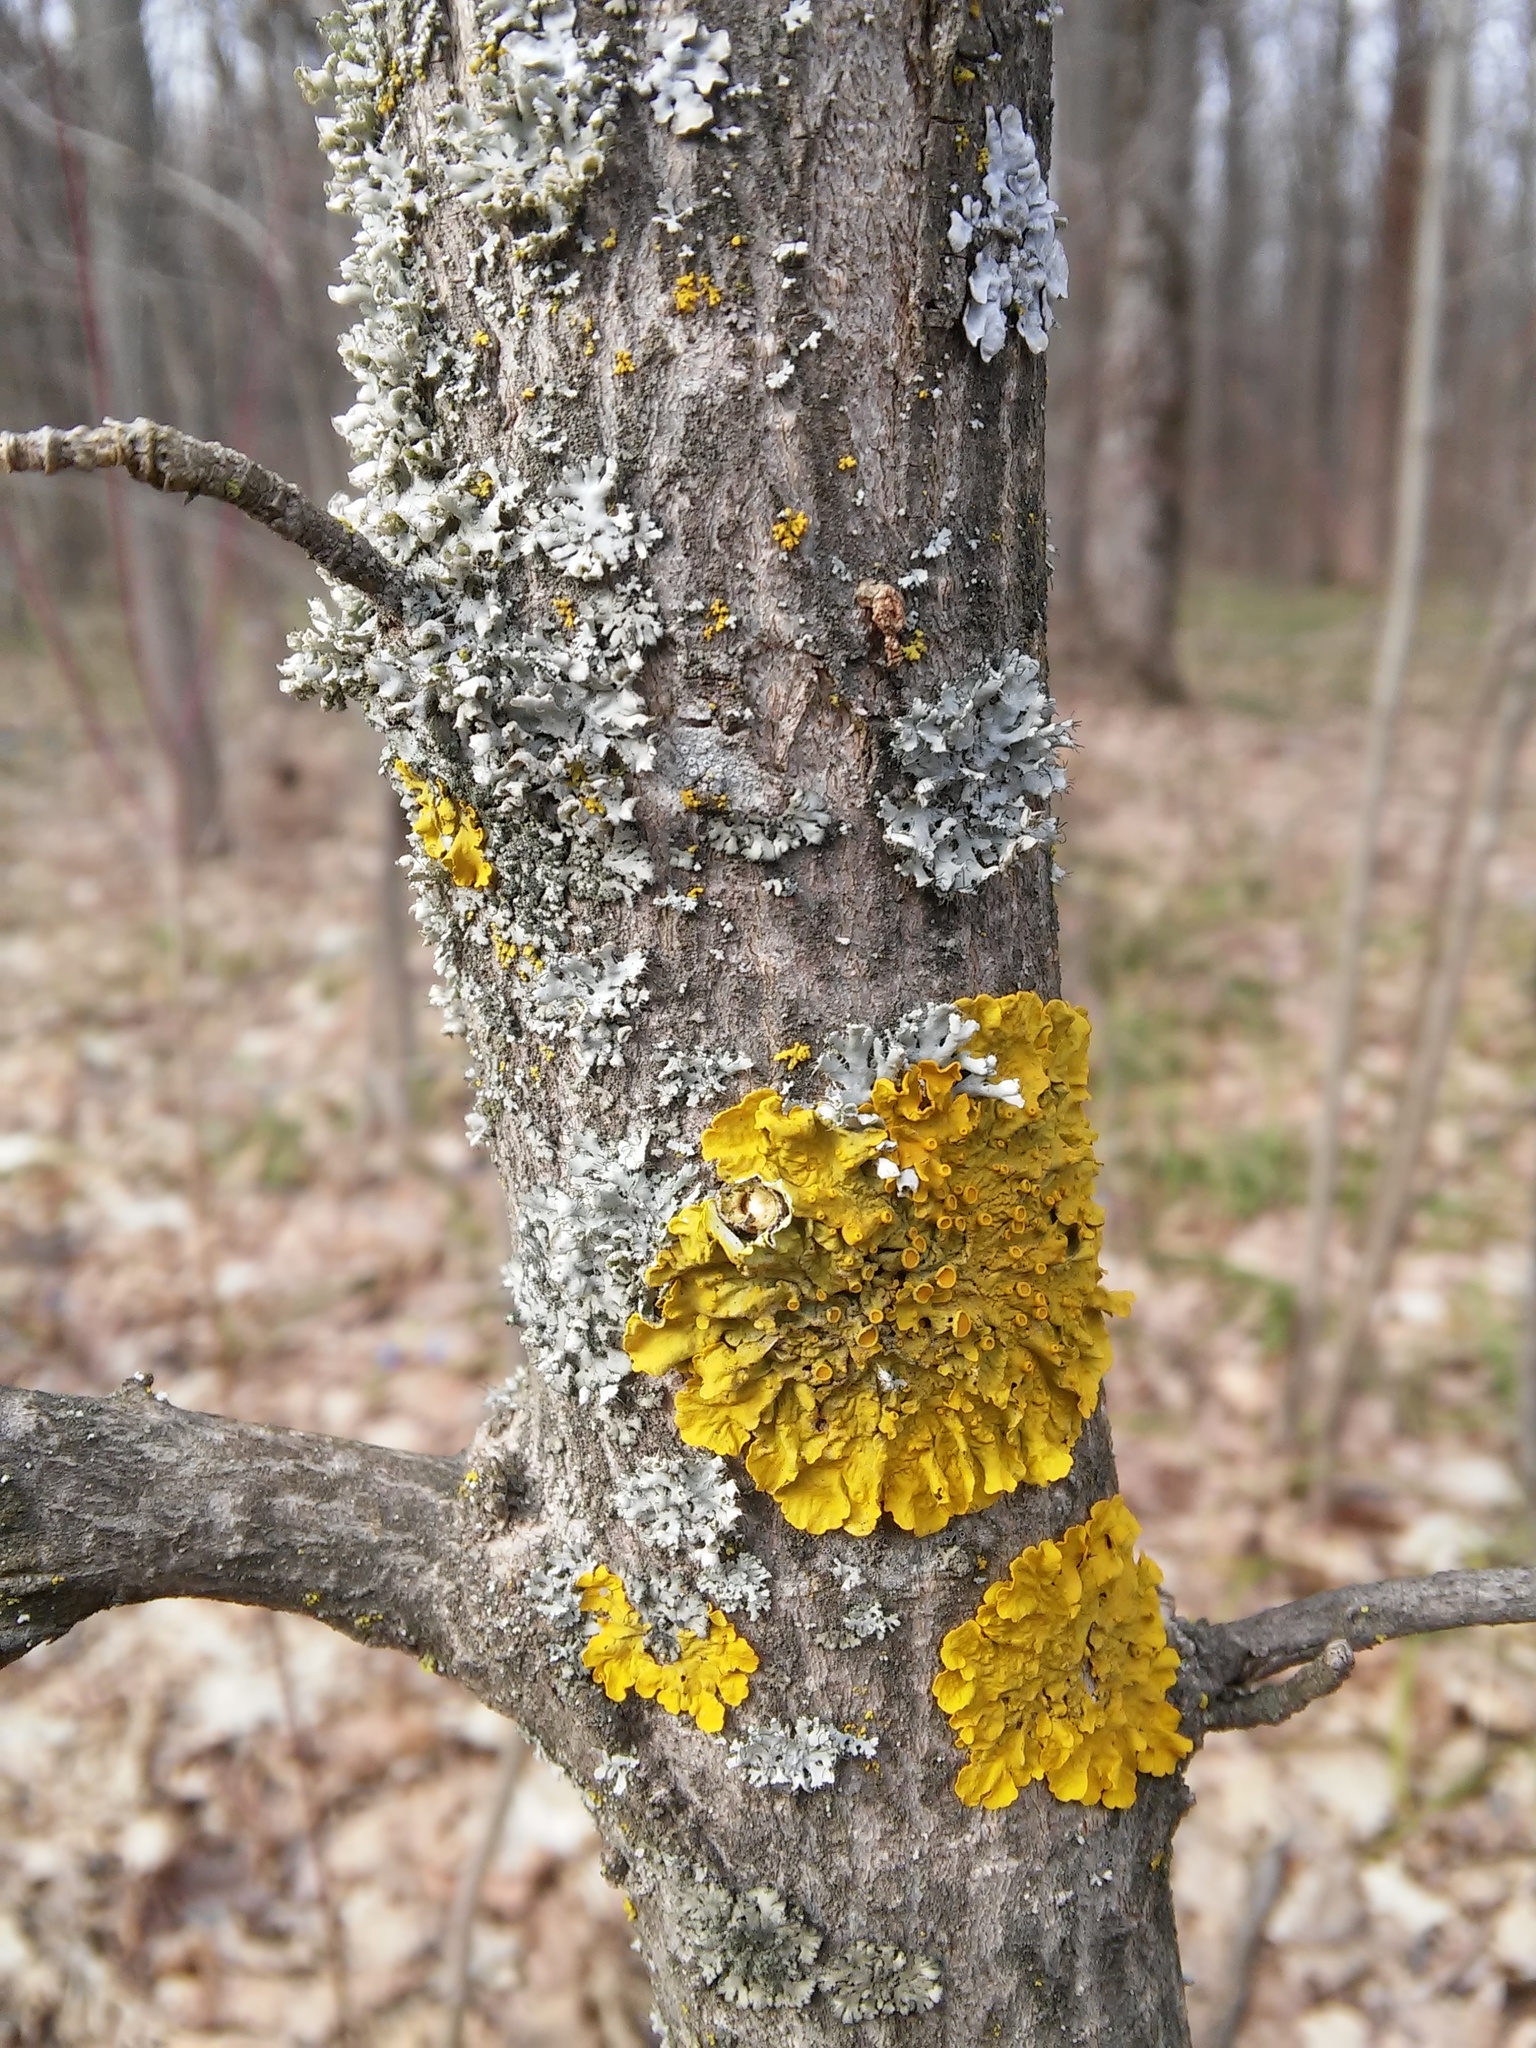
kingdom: Fungi
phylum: Ascomycota
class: Lecanoromycetes
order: Teloschistales
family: Teloschistaceae
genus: Xanthoria
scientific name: Xanthoria parietina
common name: Common orange lichen
